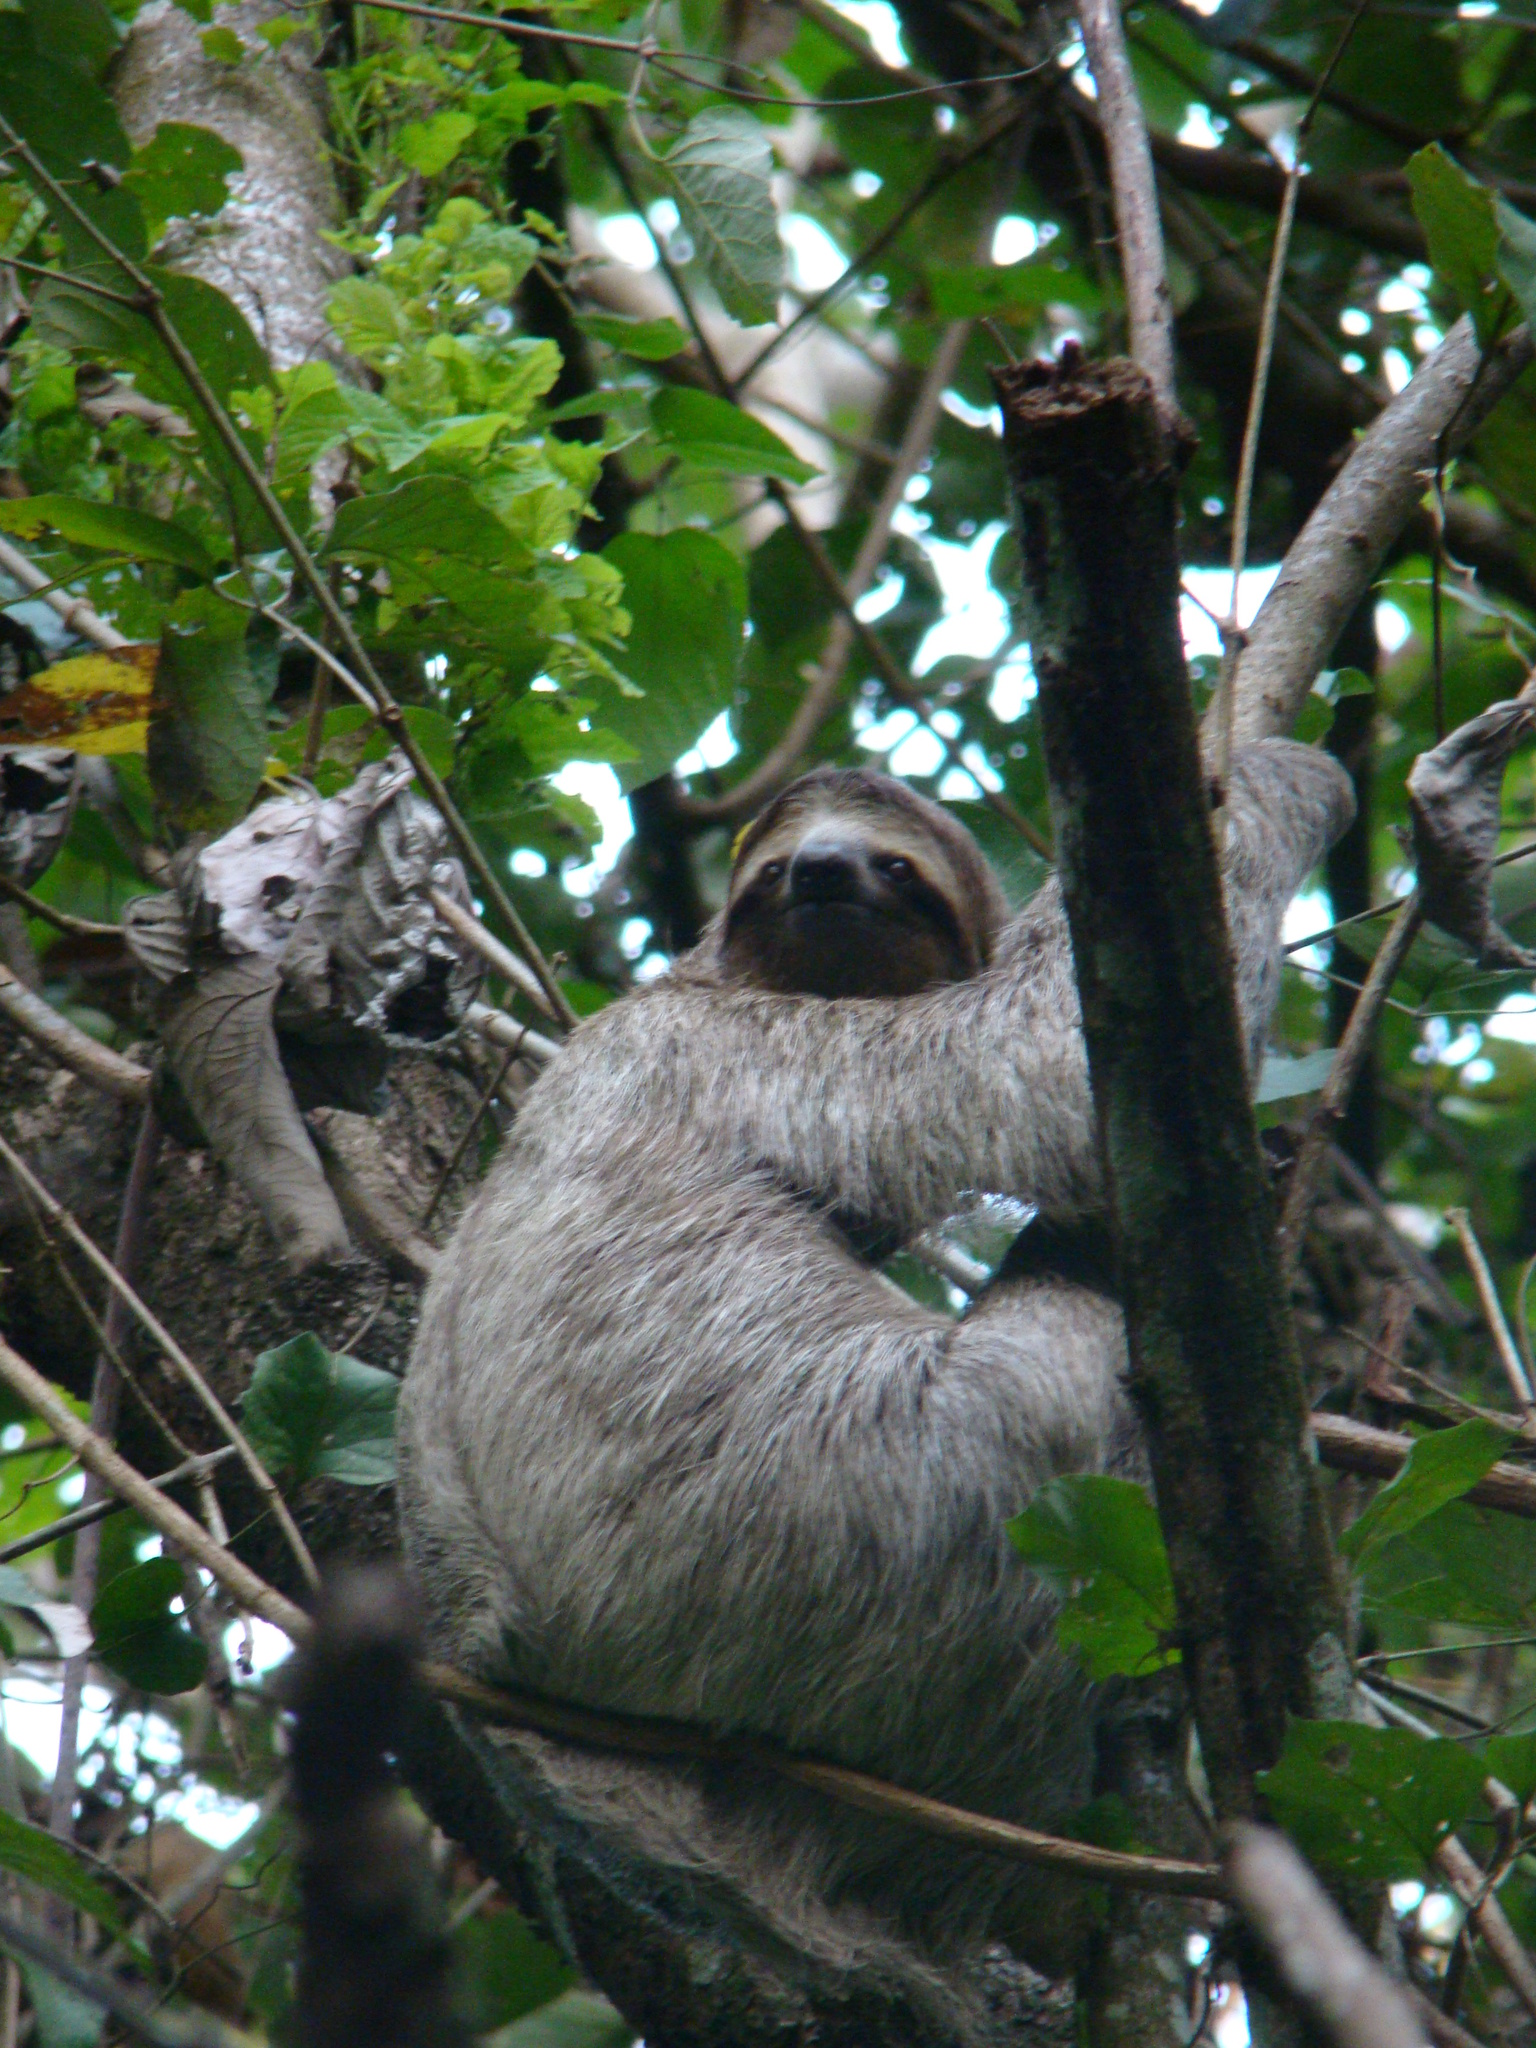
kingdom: Animalia
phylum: Chordata
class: Mammalia
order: Pilosa
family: Bradypodidae
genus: Bradypus
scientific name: Bradypus variegatus
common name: Brown-throated three-toed sloth
